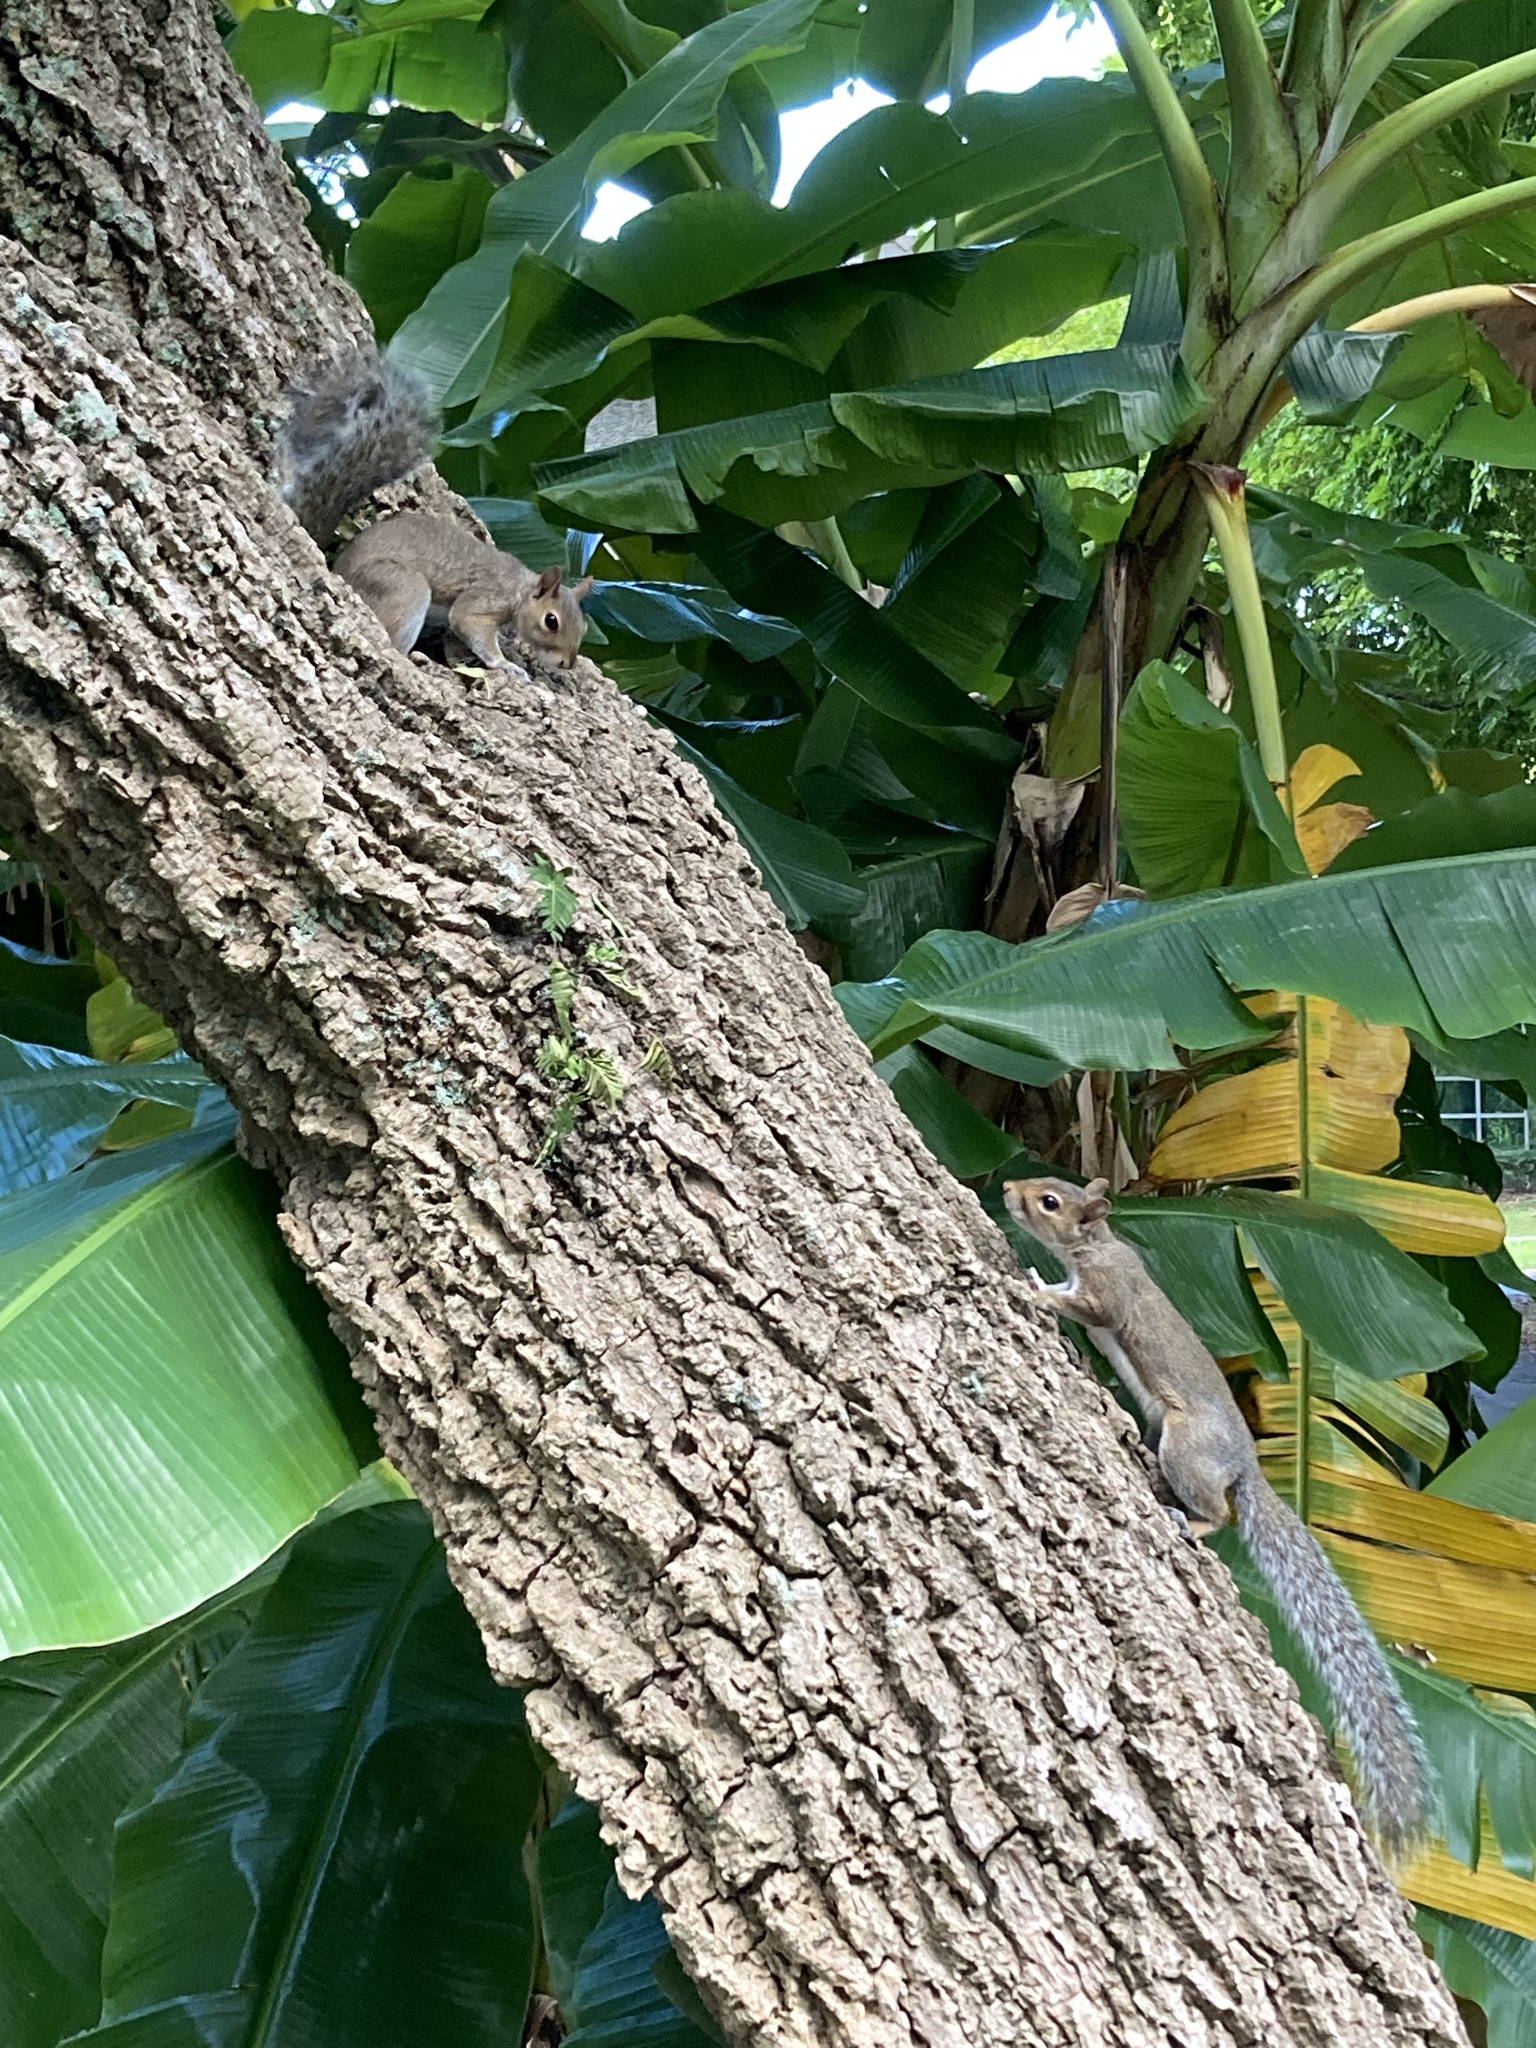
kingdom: Animalia
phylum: Chordata
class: Mammalia
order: Rodentia
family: Sciuridae
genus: Sciurus
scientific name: Sciurus carolinensis
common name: Eastern gray squirrel
